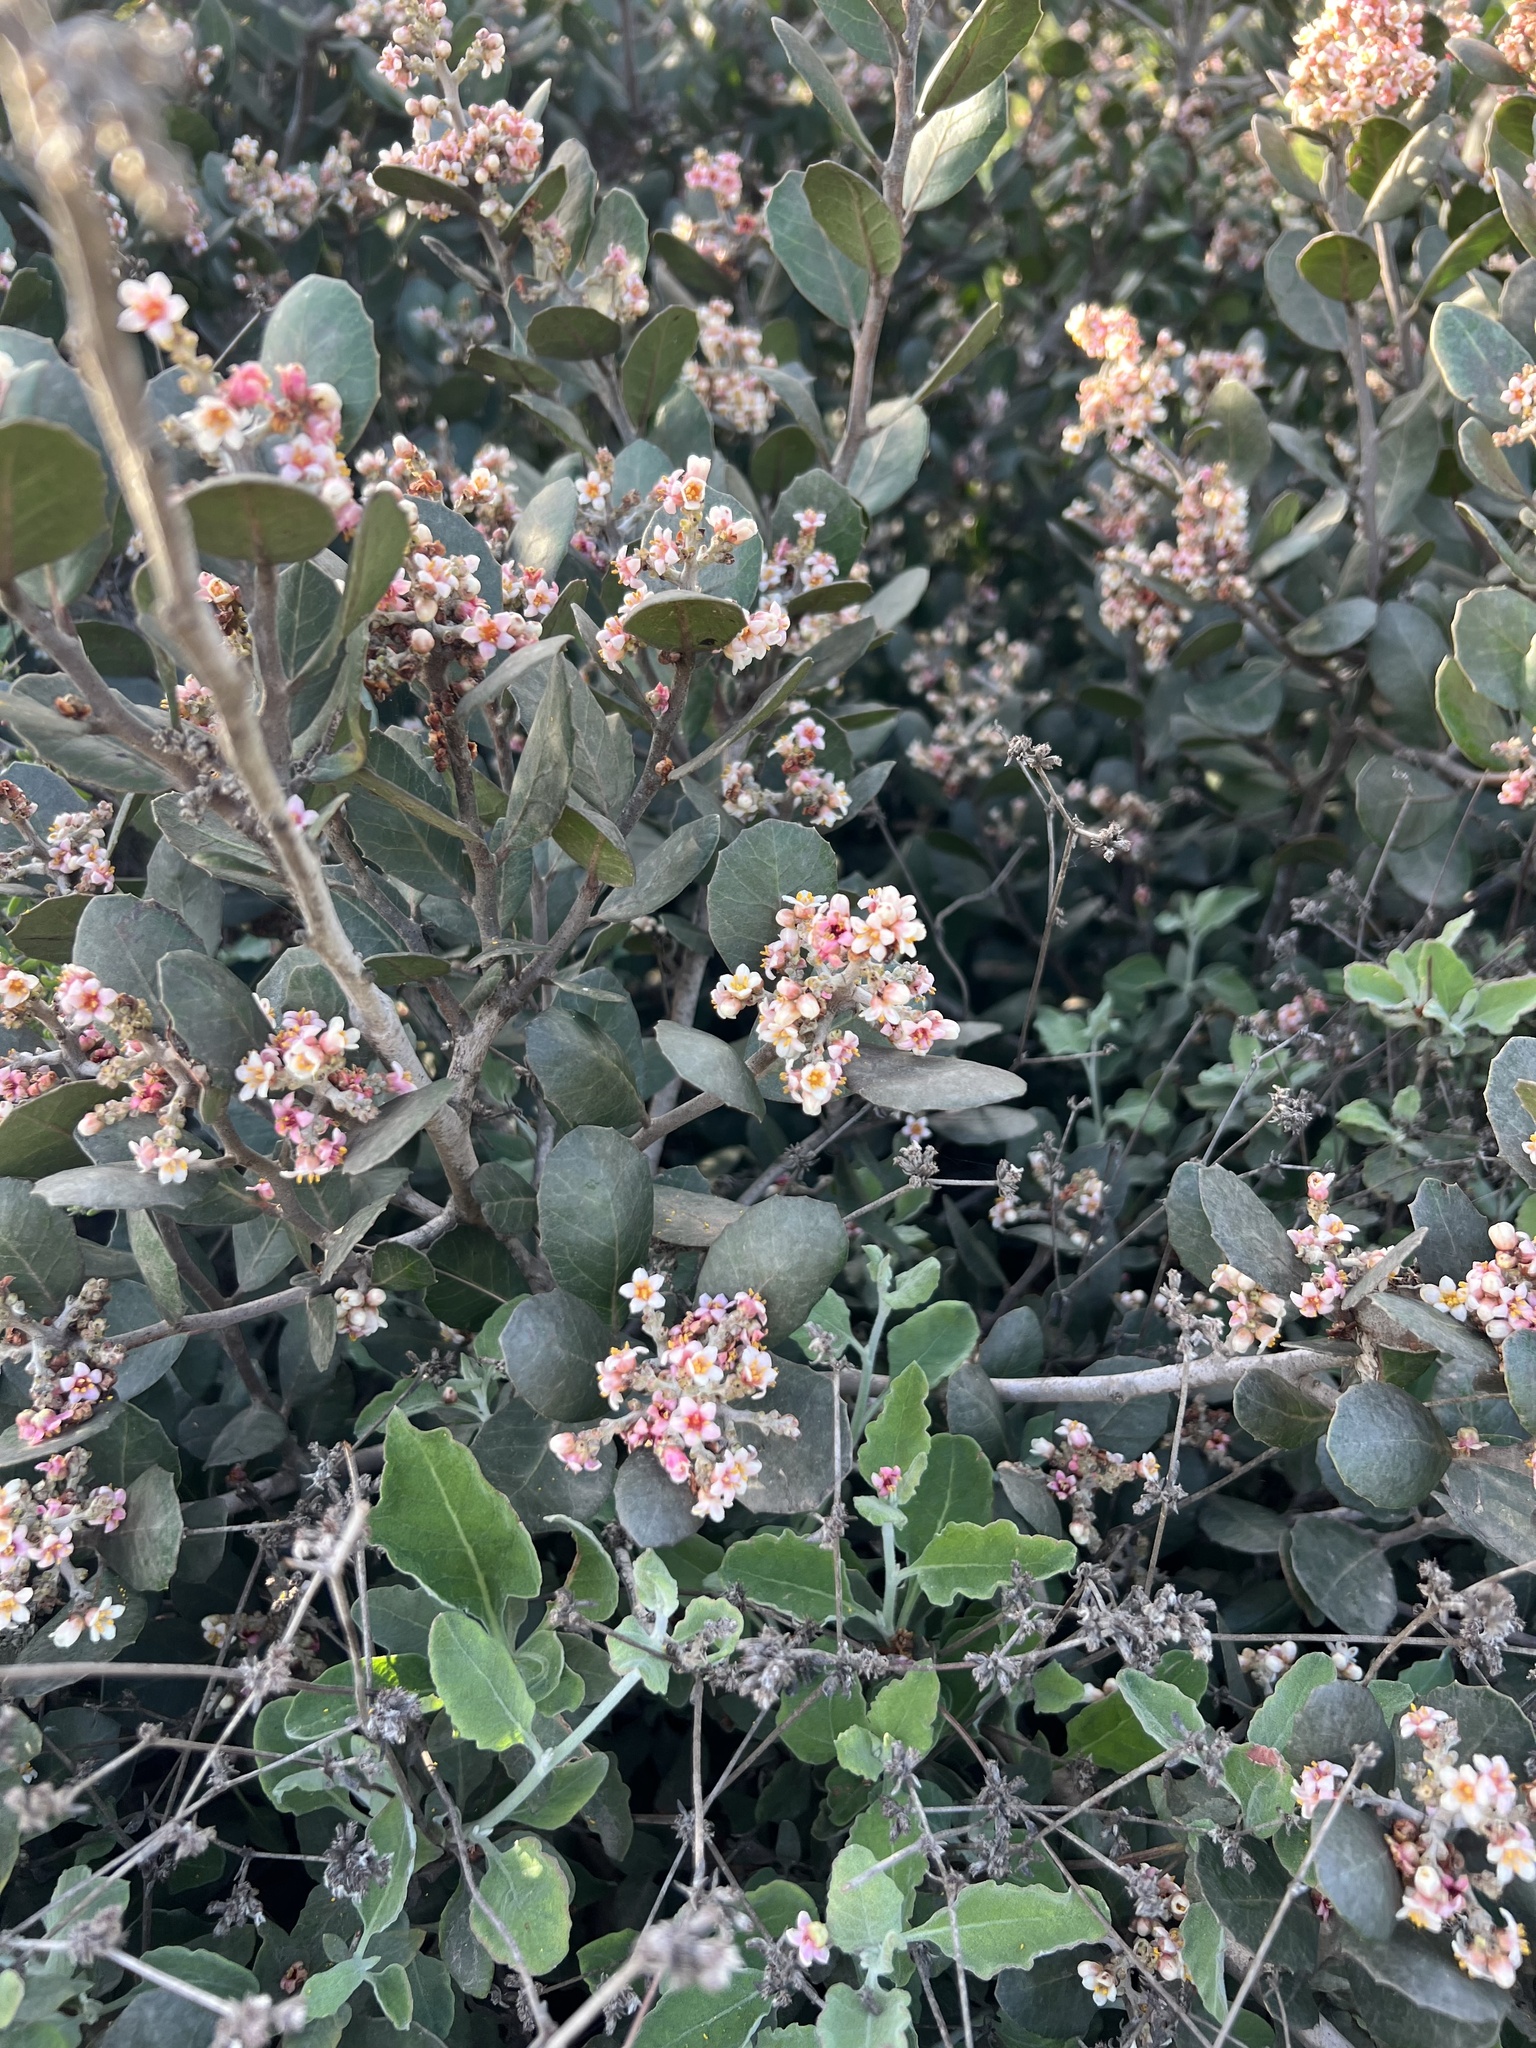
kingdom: Plantae
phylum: Tracheophyta
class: Magnoliopsida
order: Sapindales
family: Anacardiaceae
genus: Rhus
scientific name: Rhus integrifolia
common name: Lemonade sumac
